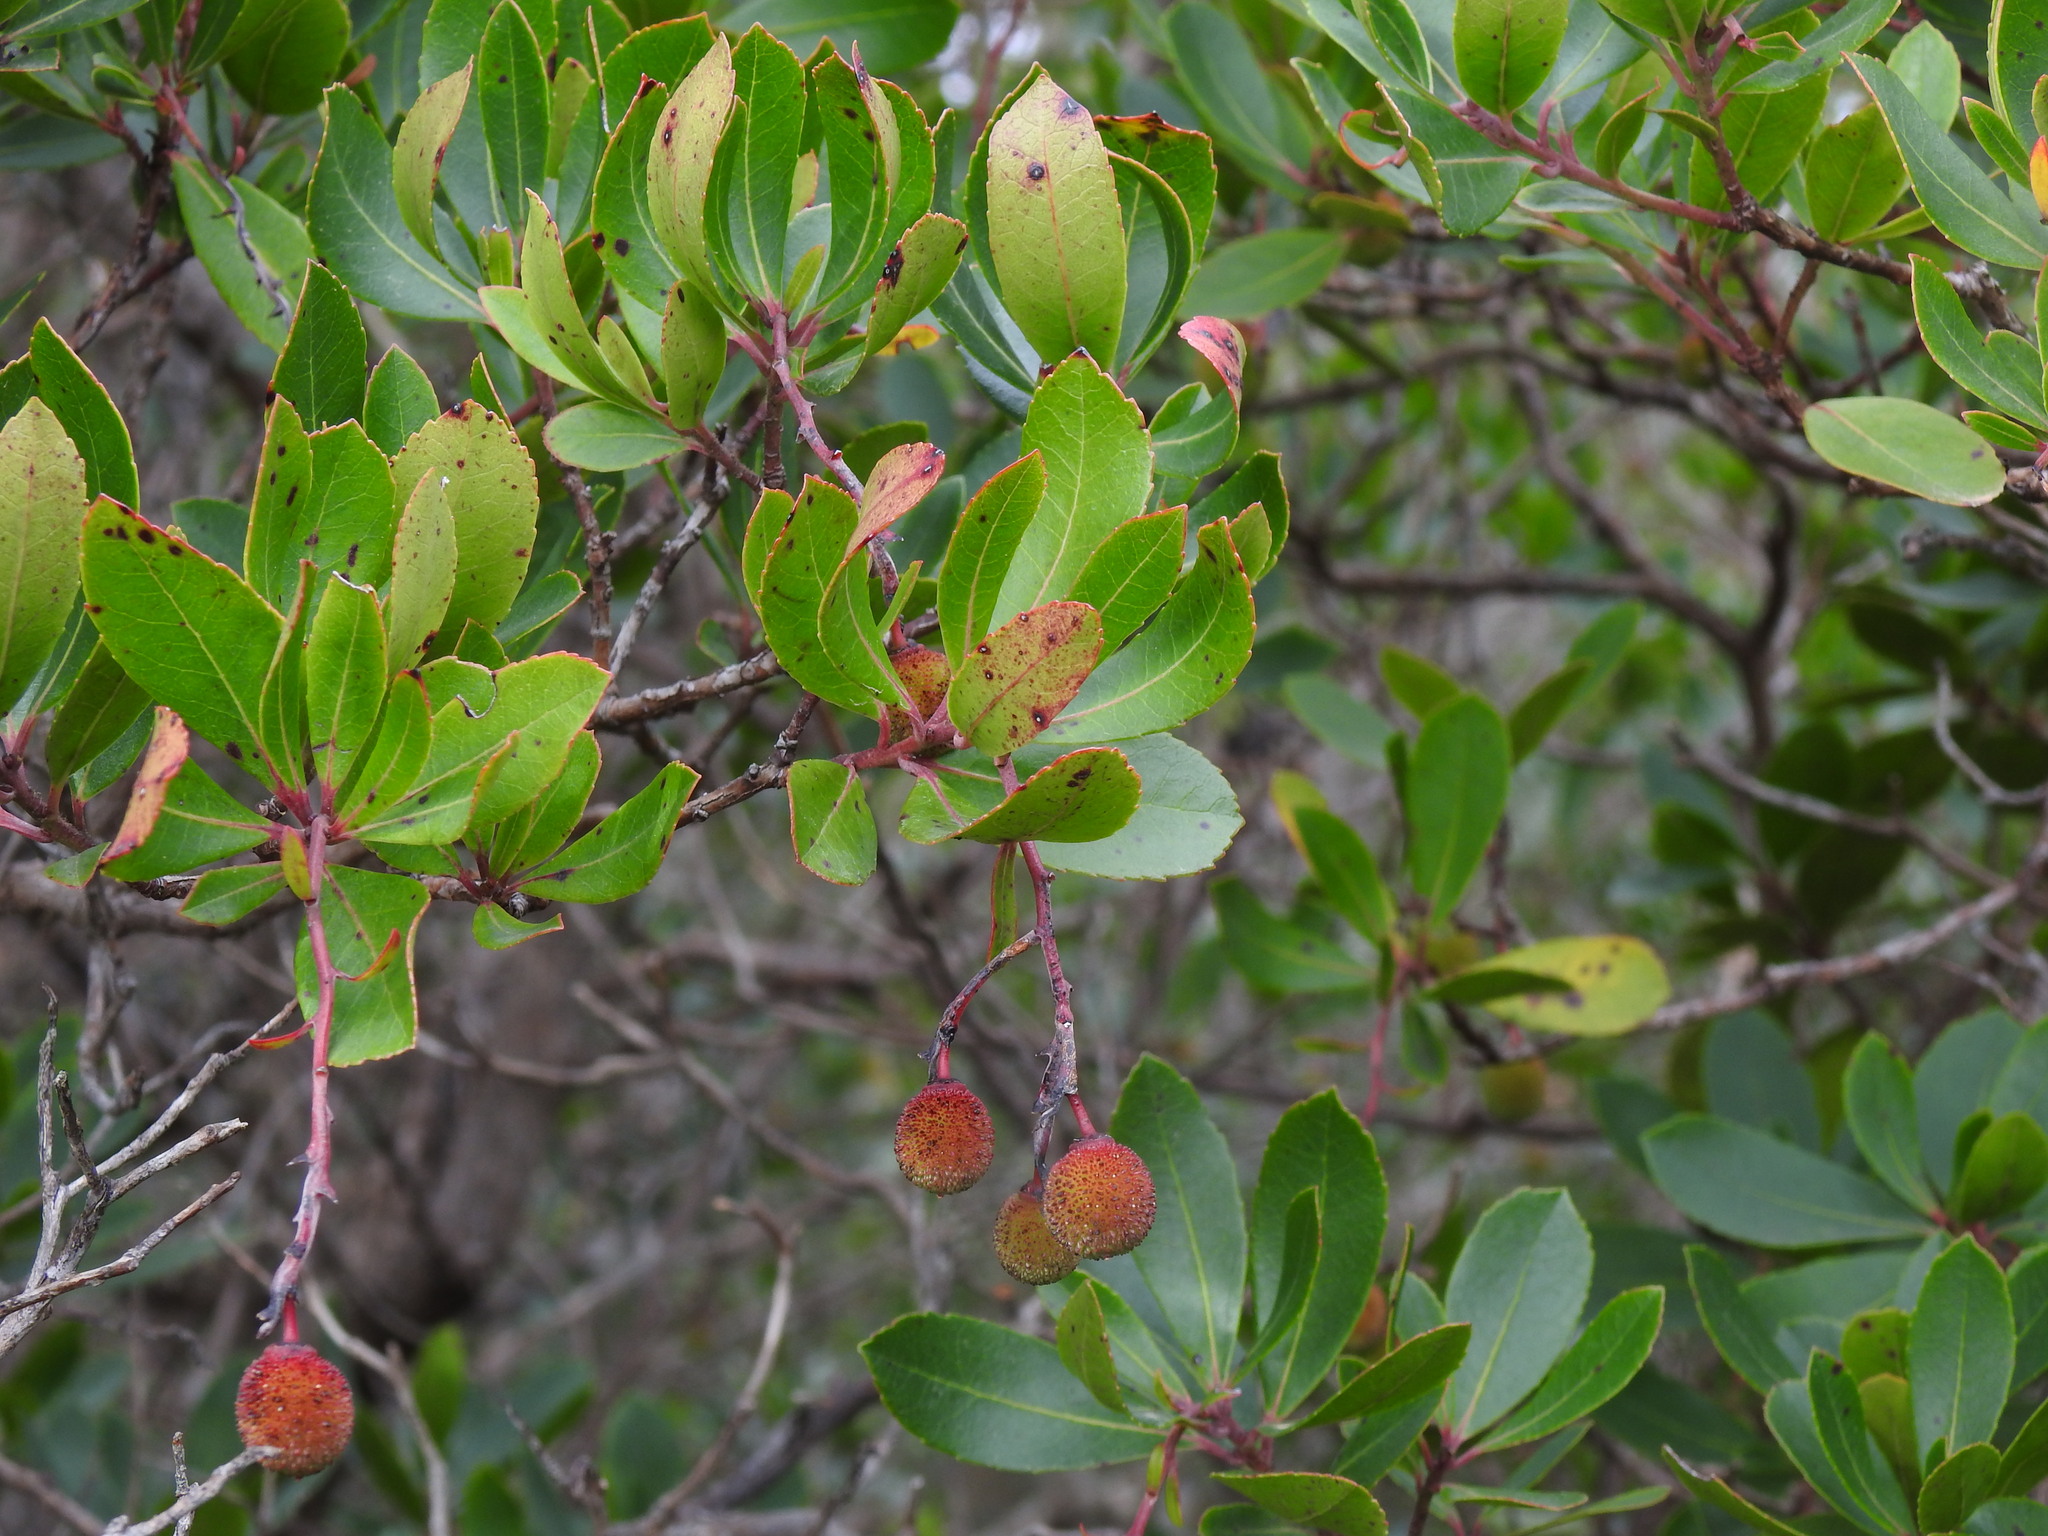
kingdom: Plantae
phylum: Tracheophyta
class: Magnoliopsida
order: Ericales
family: Ericaceae
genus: Arbutus
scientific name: Arbutus unedo
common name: Strawberry-tree
